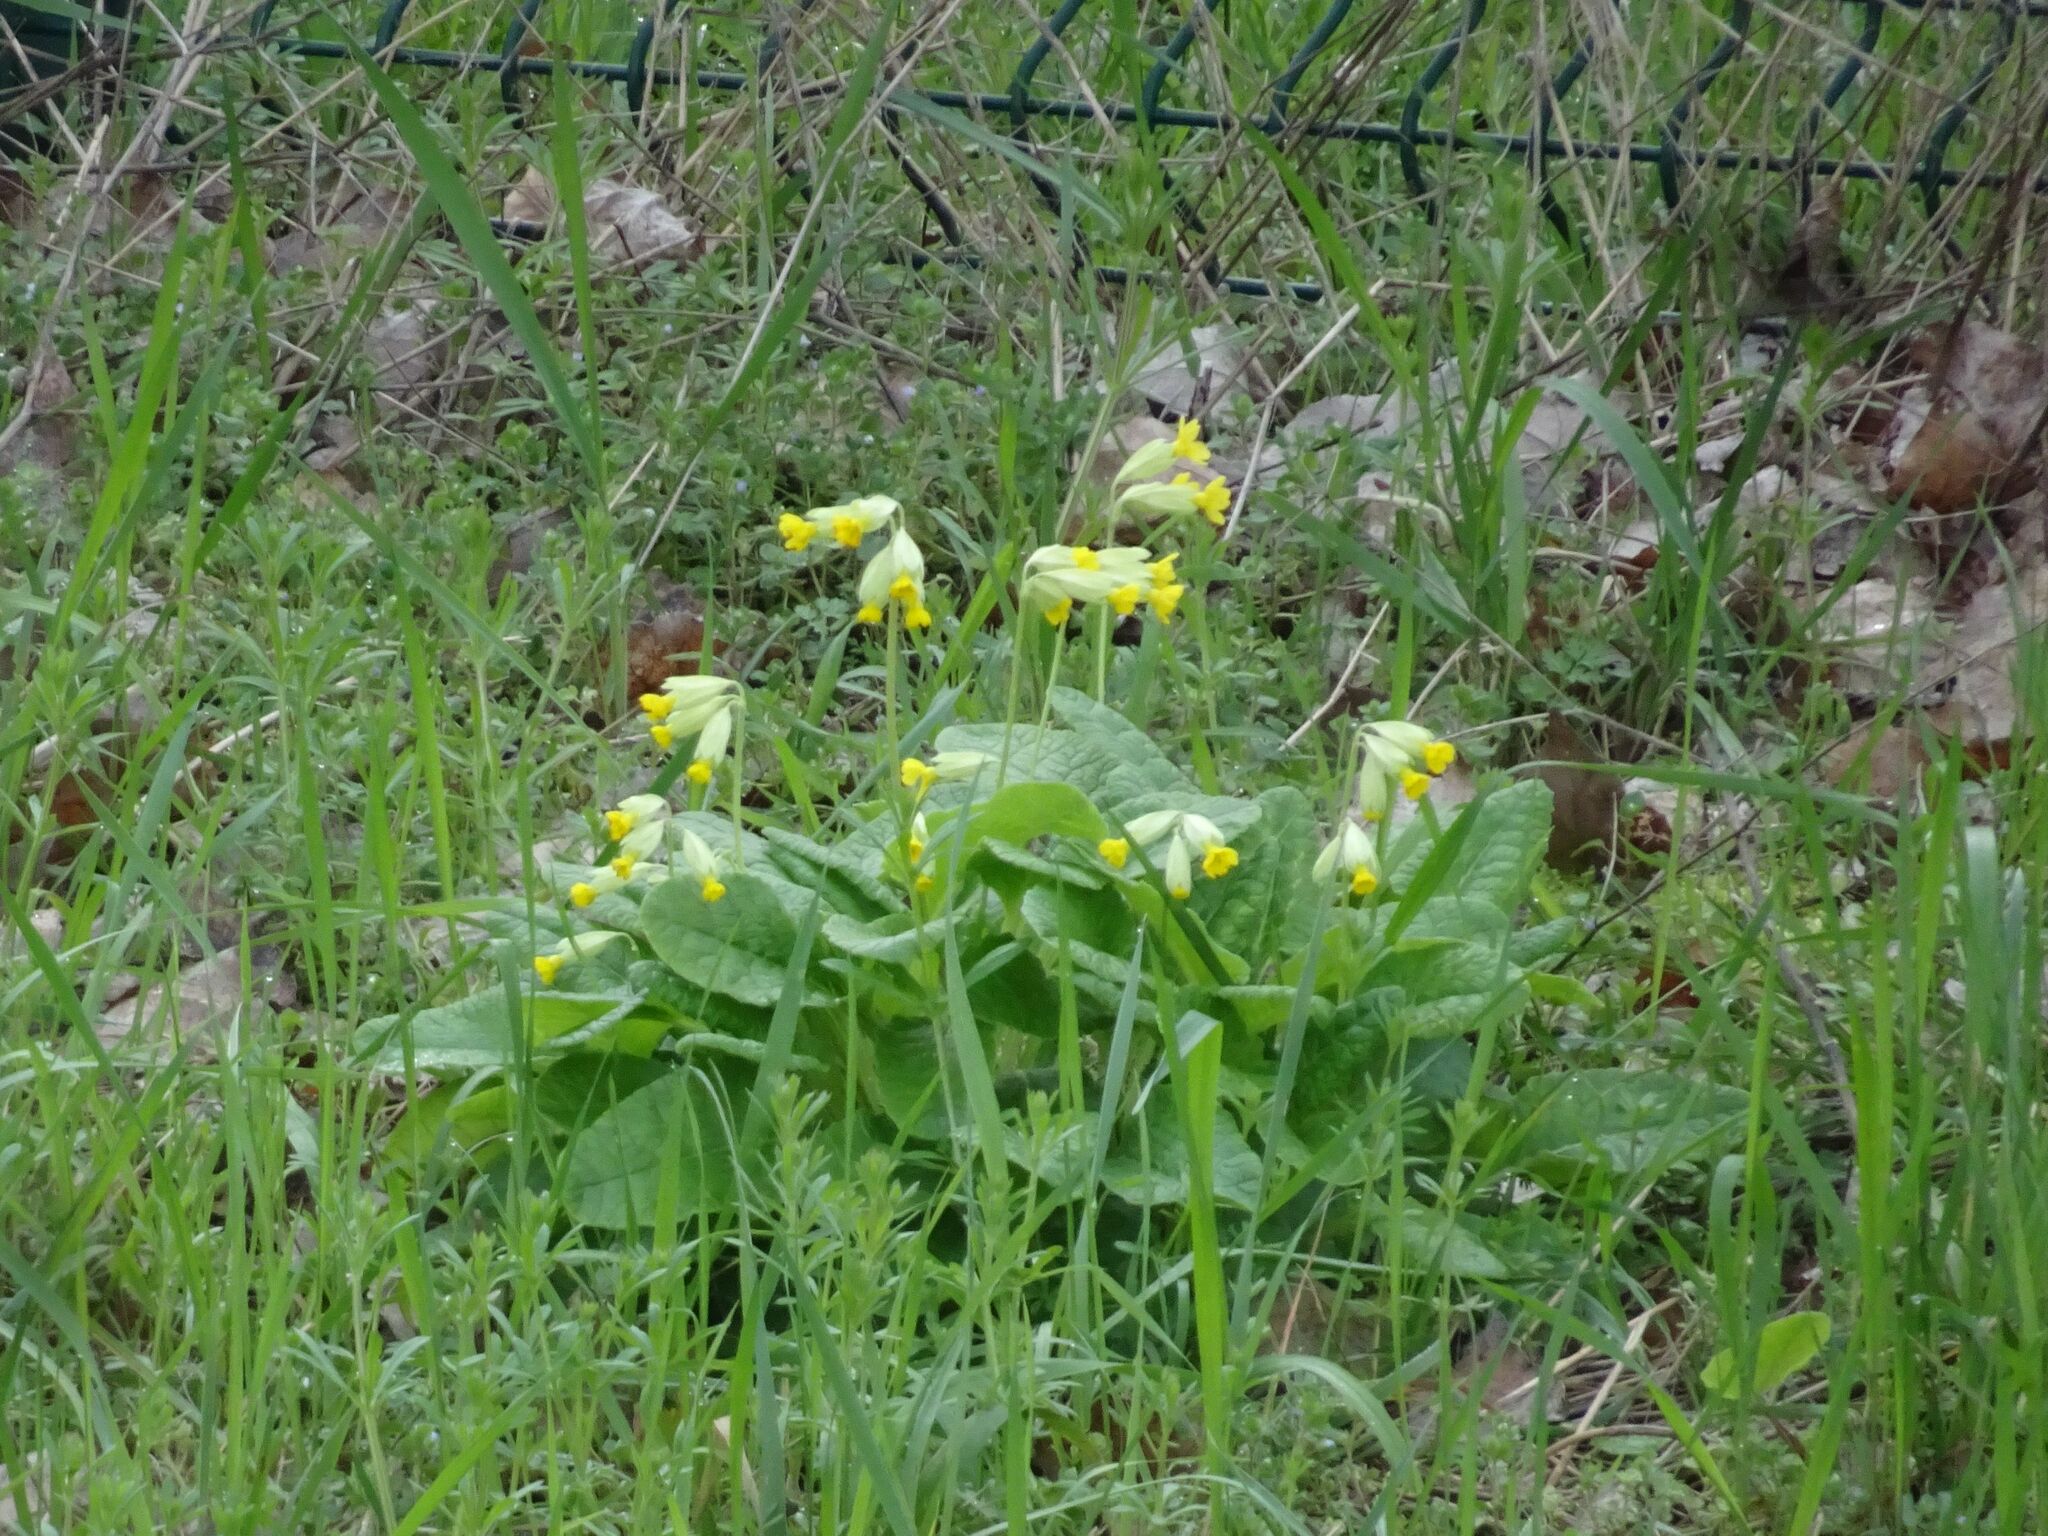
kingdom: Plantae
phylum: Tracheophyta
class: Magnoliopsida
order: Ericales
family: Primulaceae
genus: Primula
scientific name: Primula veris
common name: Cowslip
